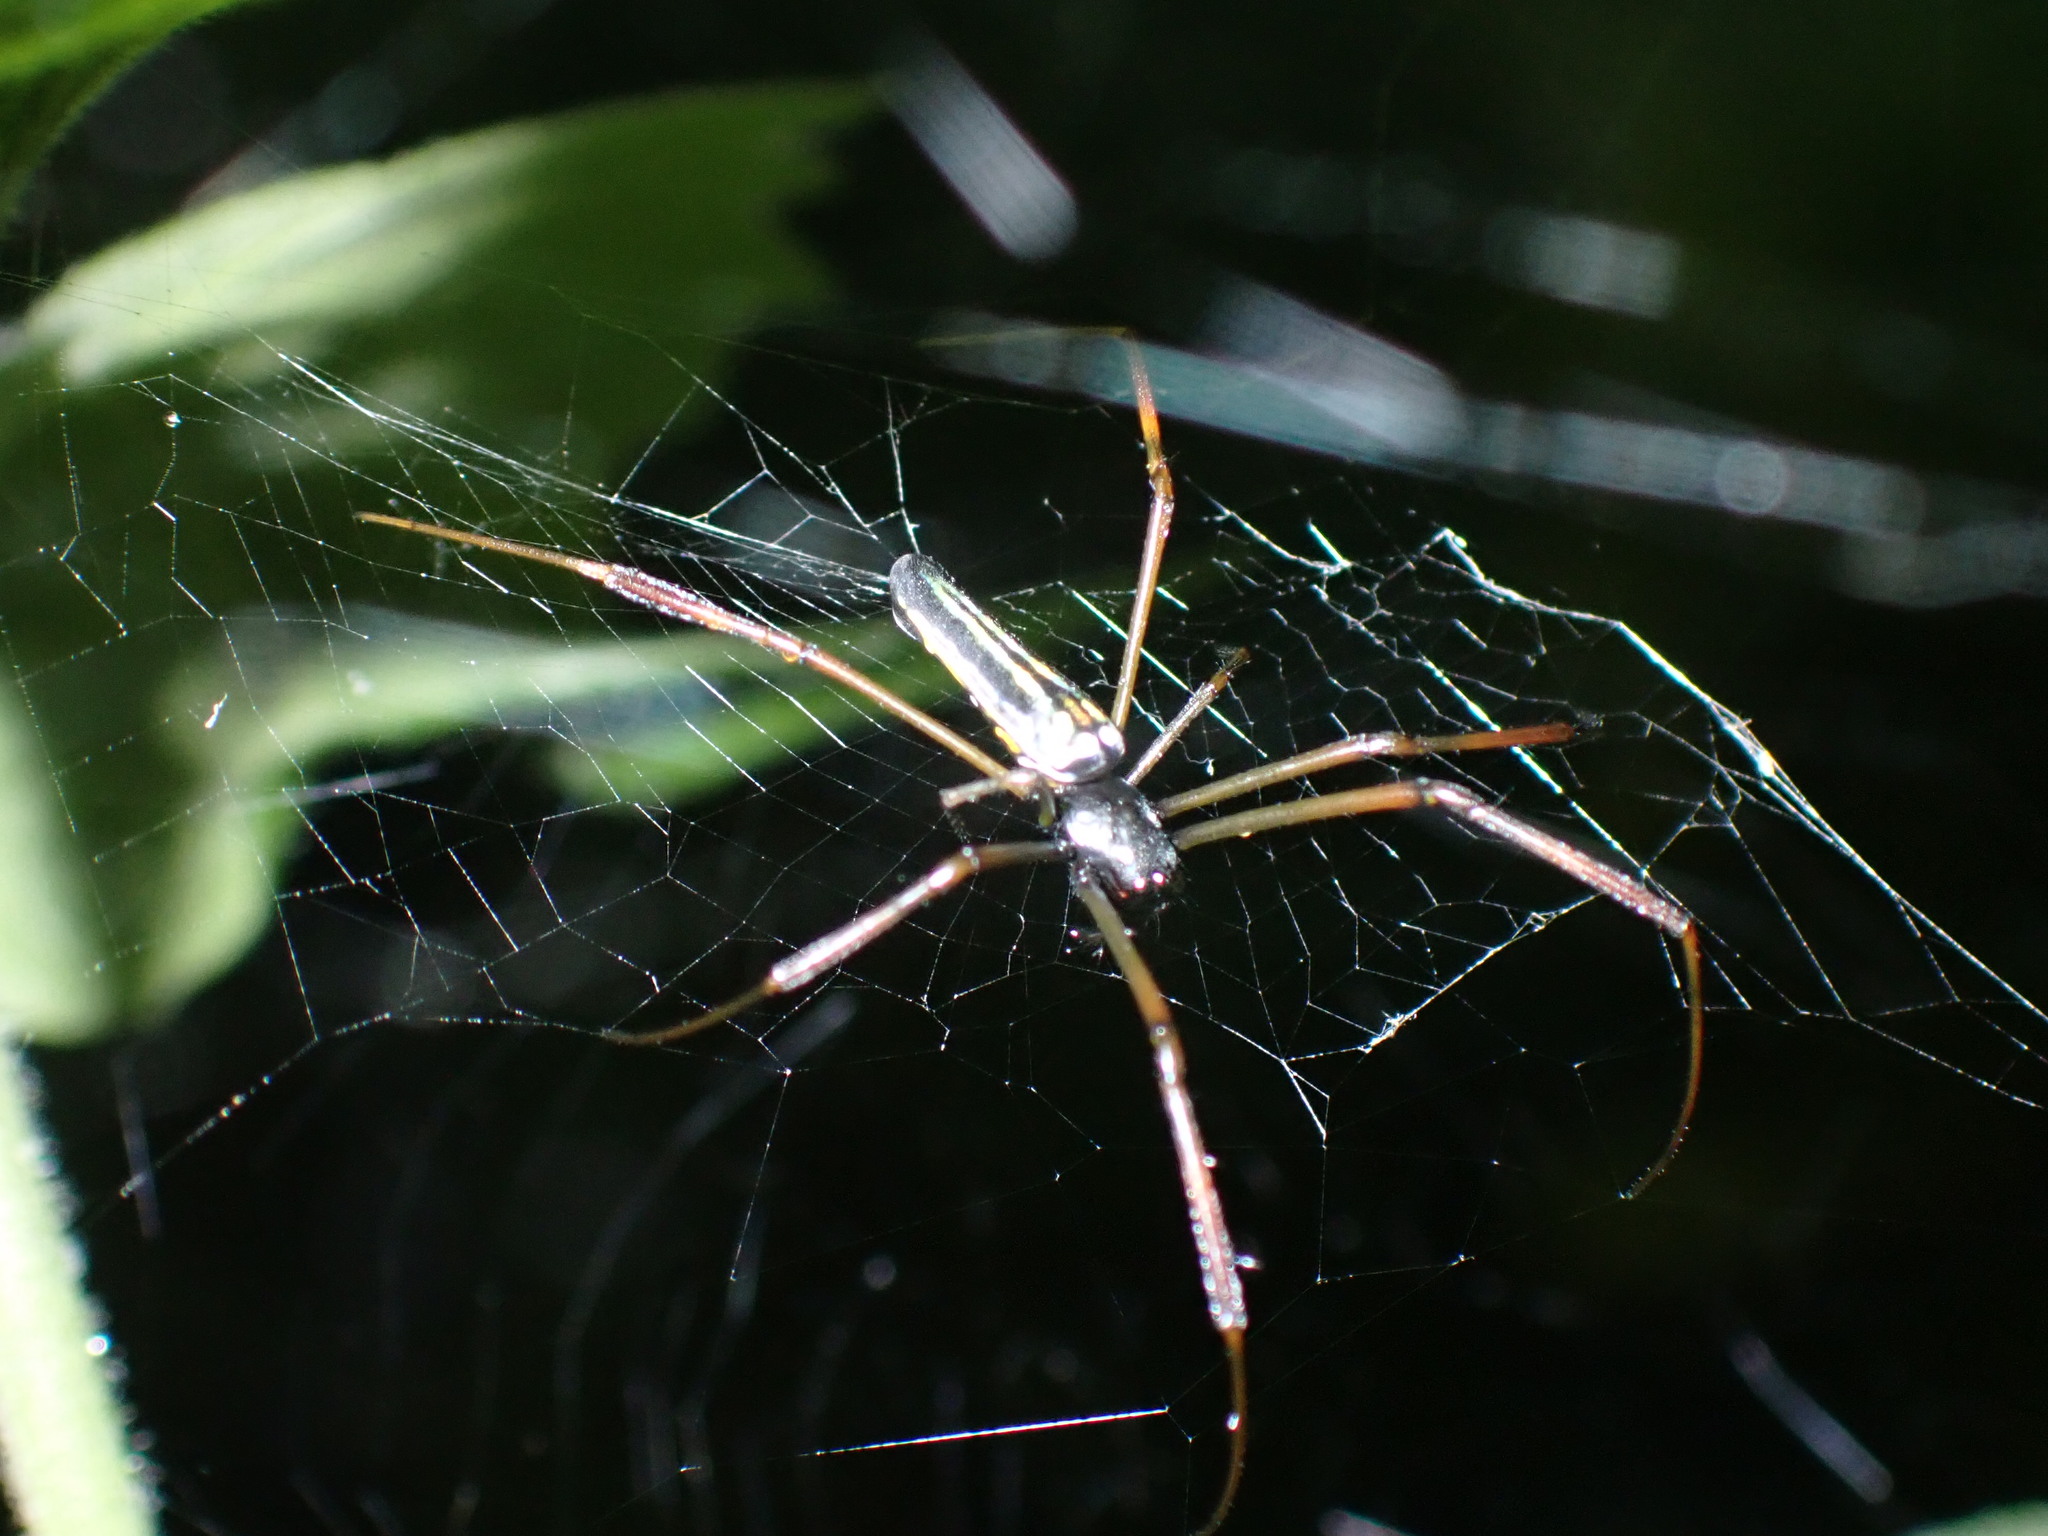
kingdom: Animalia
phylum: Arthropoda
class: Arachnida
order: Araneae
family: Araneidae
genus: Nephila
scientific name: Nephila pilipes
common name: Giant golden orb weaver
